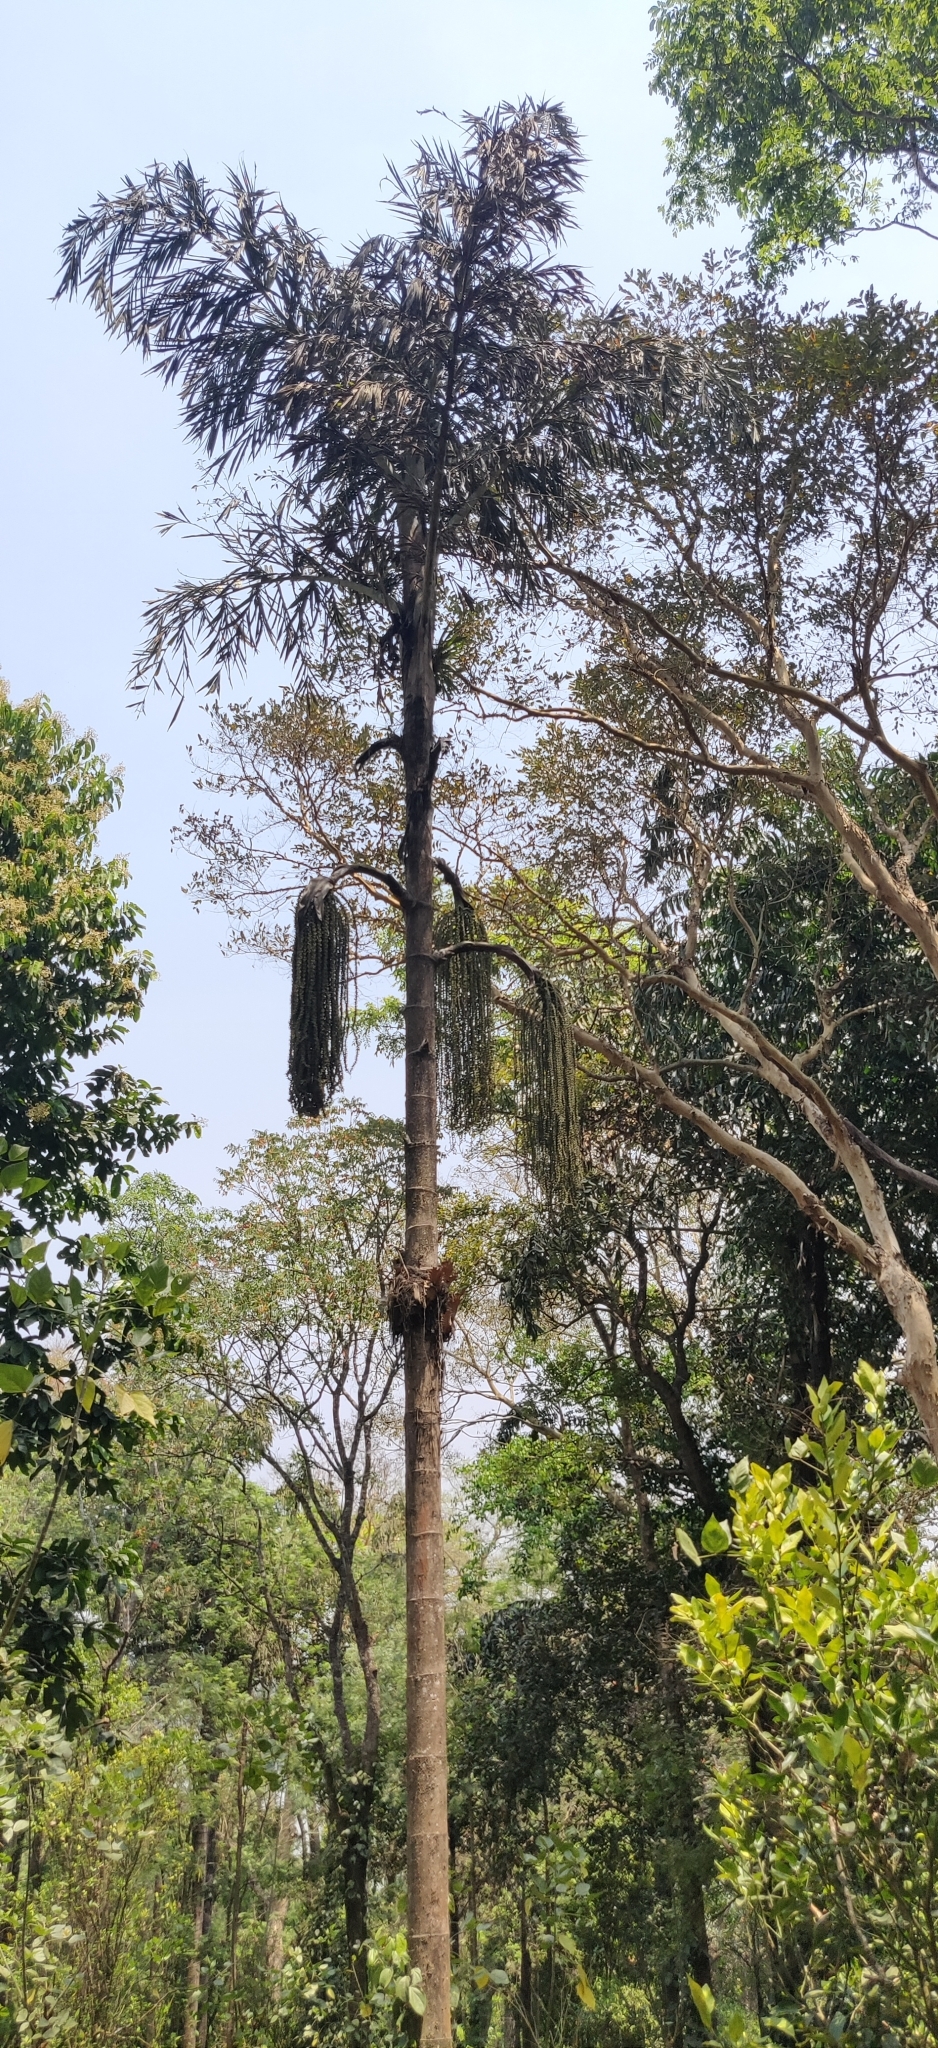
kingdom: Plantae
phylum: Tracheophyta
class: Liliopsida
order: Arecales
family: Arecaceae
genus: Caryota
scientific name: Caryota urens
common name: Jaggery palm
